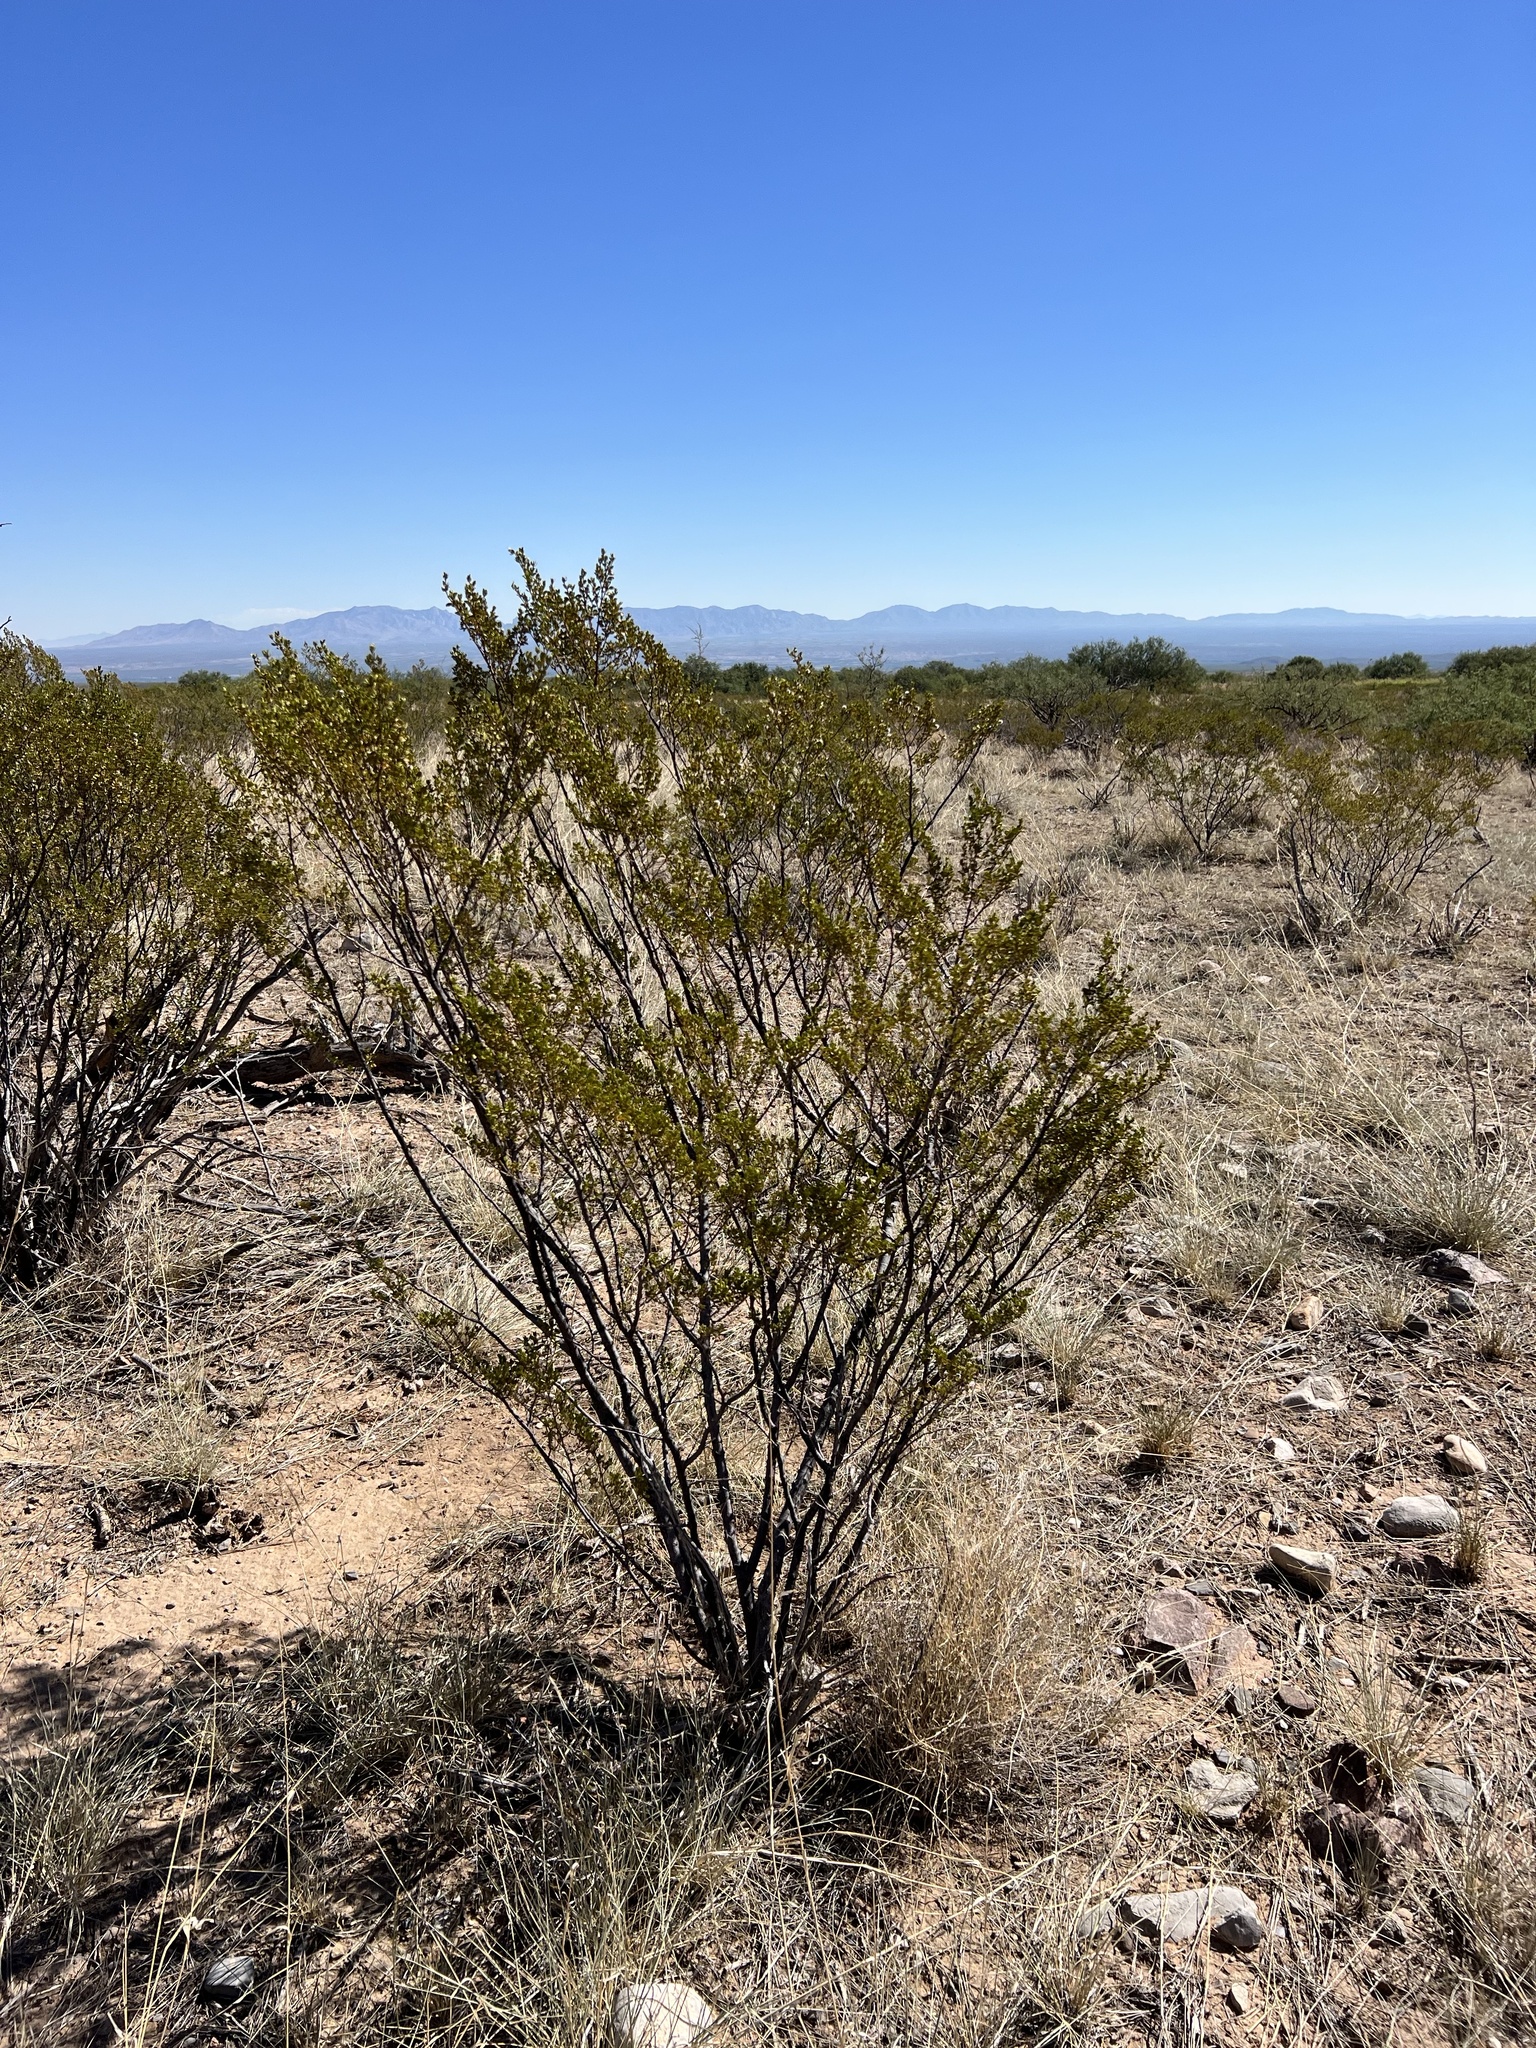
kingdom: Plantae
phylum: Tracheophyta
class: Magnoliopsida
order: Zygophyllales
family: Zygophyllaceae
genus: Larrea
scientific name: Larrea tridentata
